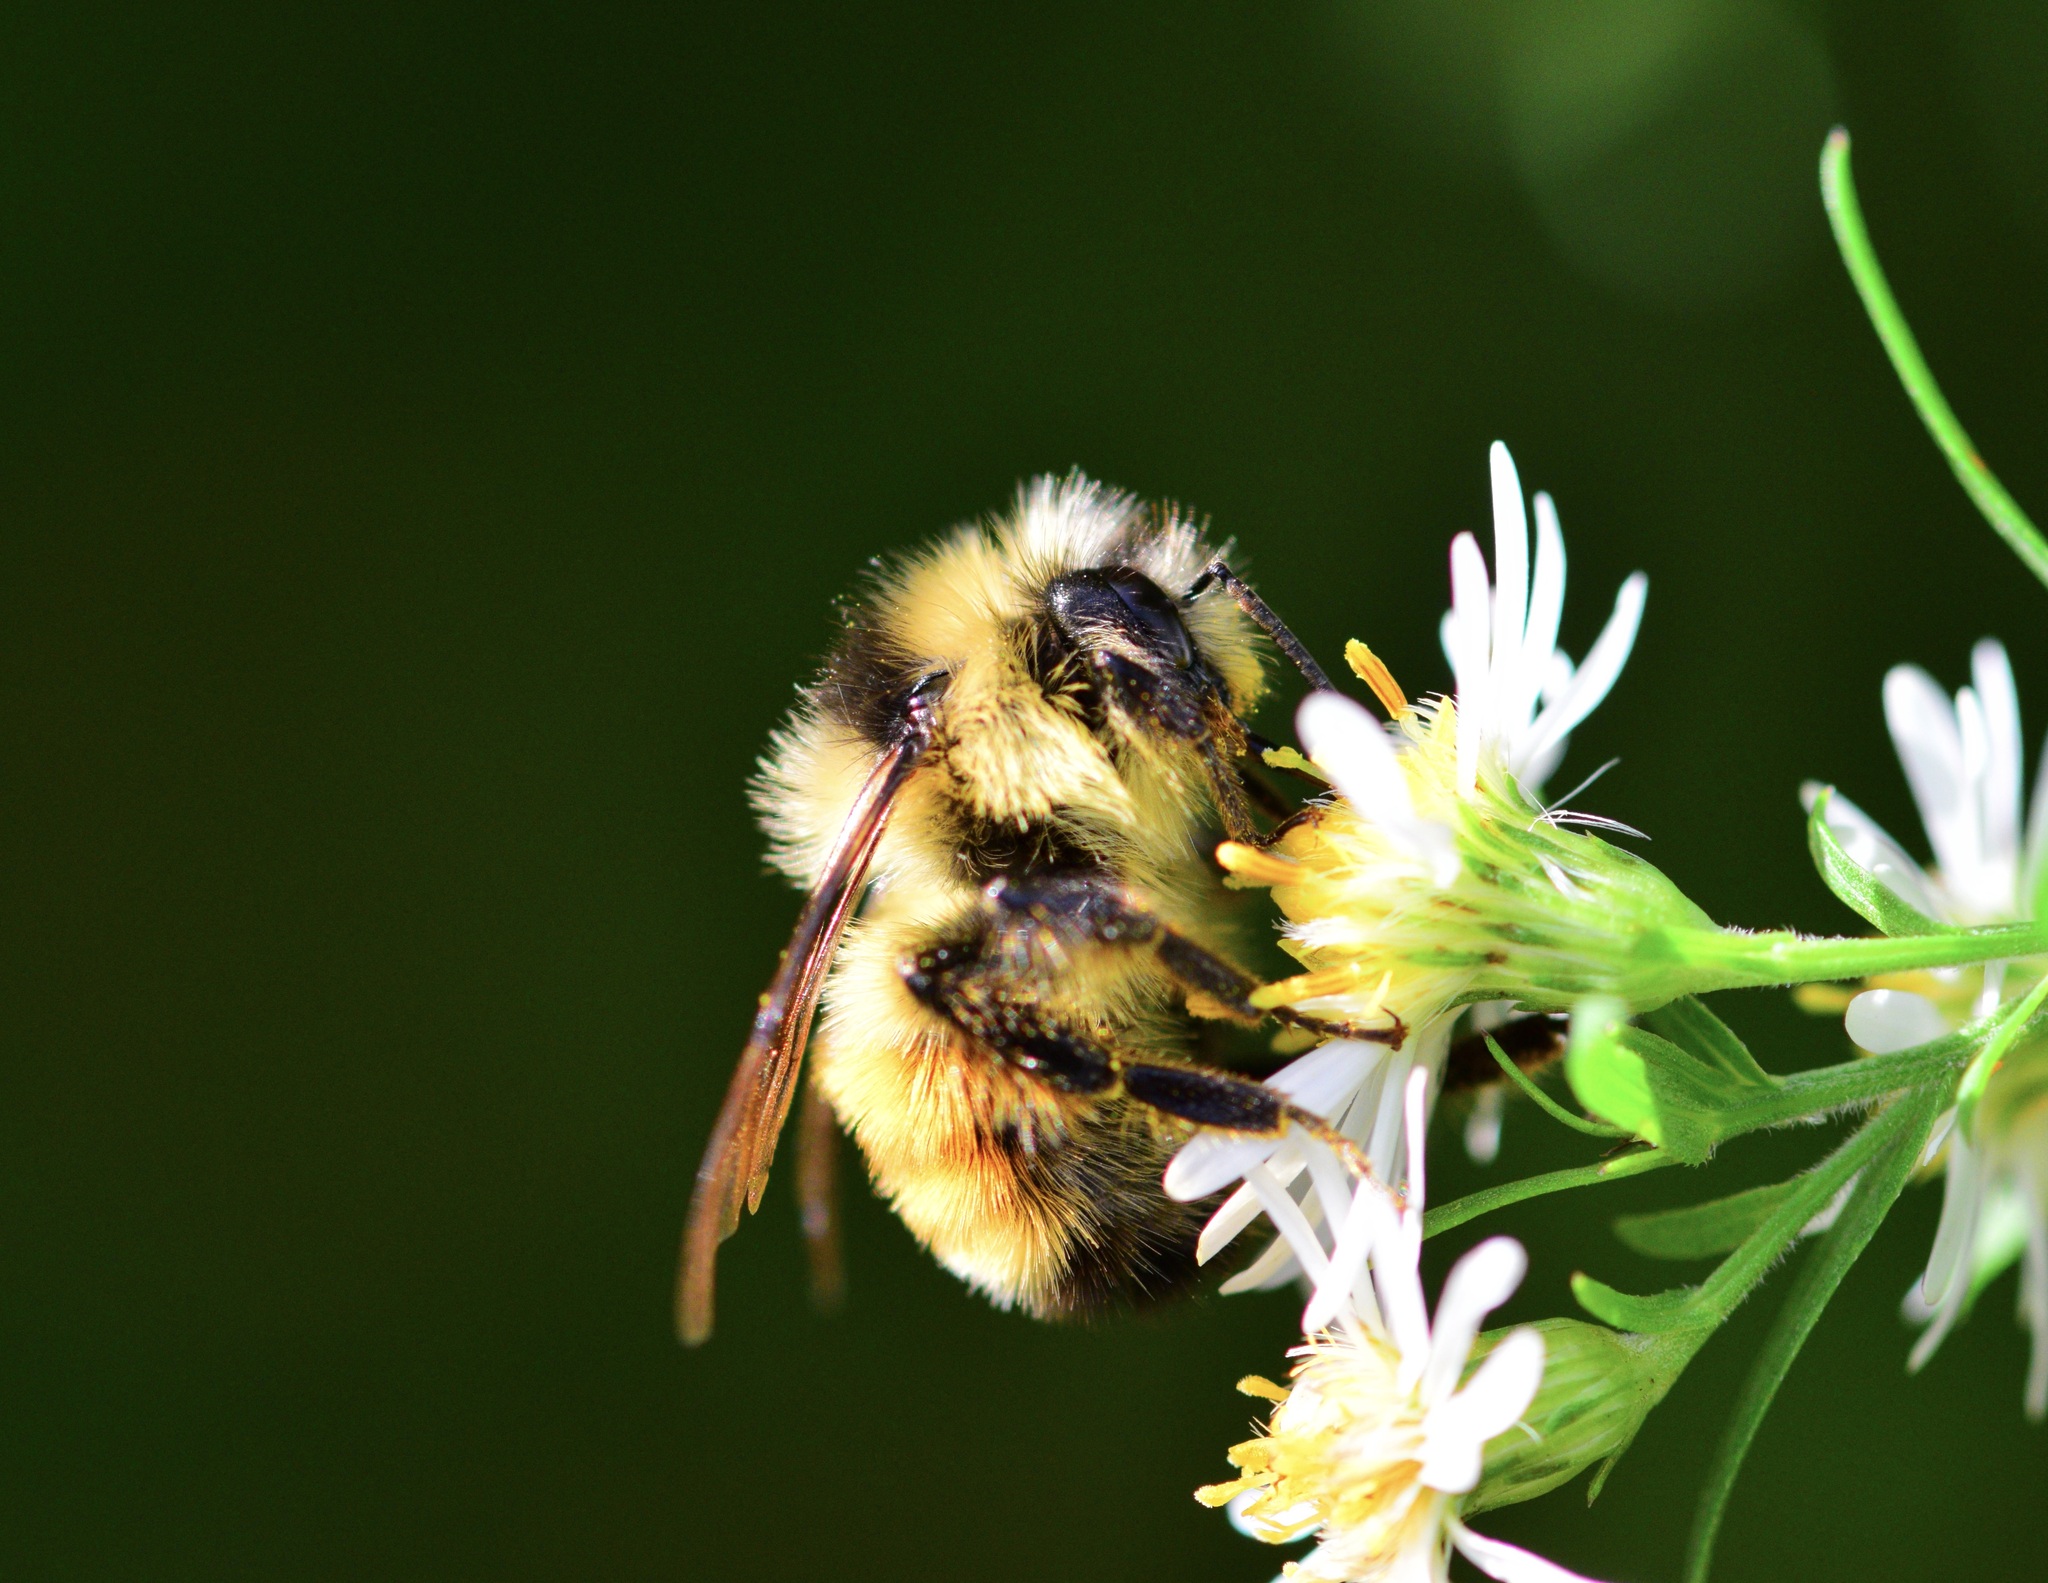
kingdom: Animalia
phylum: Arthropoda
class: Insecta
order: Hymenoptera
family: Apidae
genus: Bombus
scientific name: Bombus ternarius
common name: Tri-colored bumble bee
